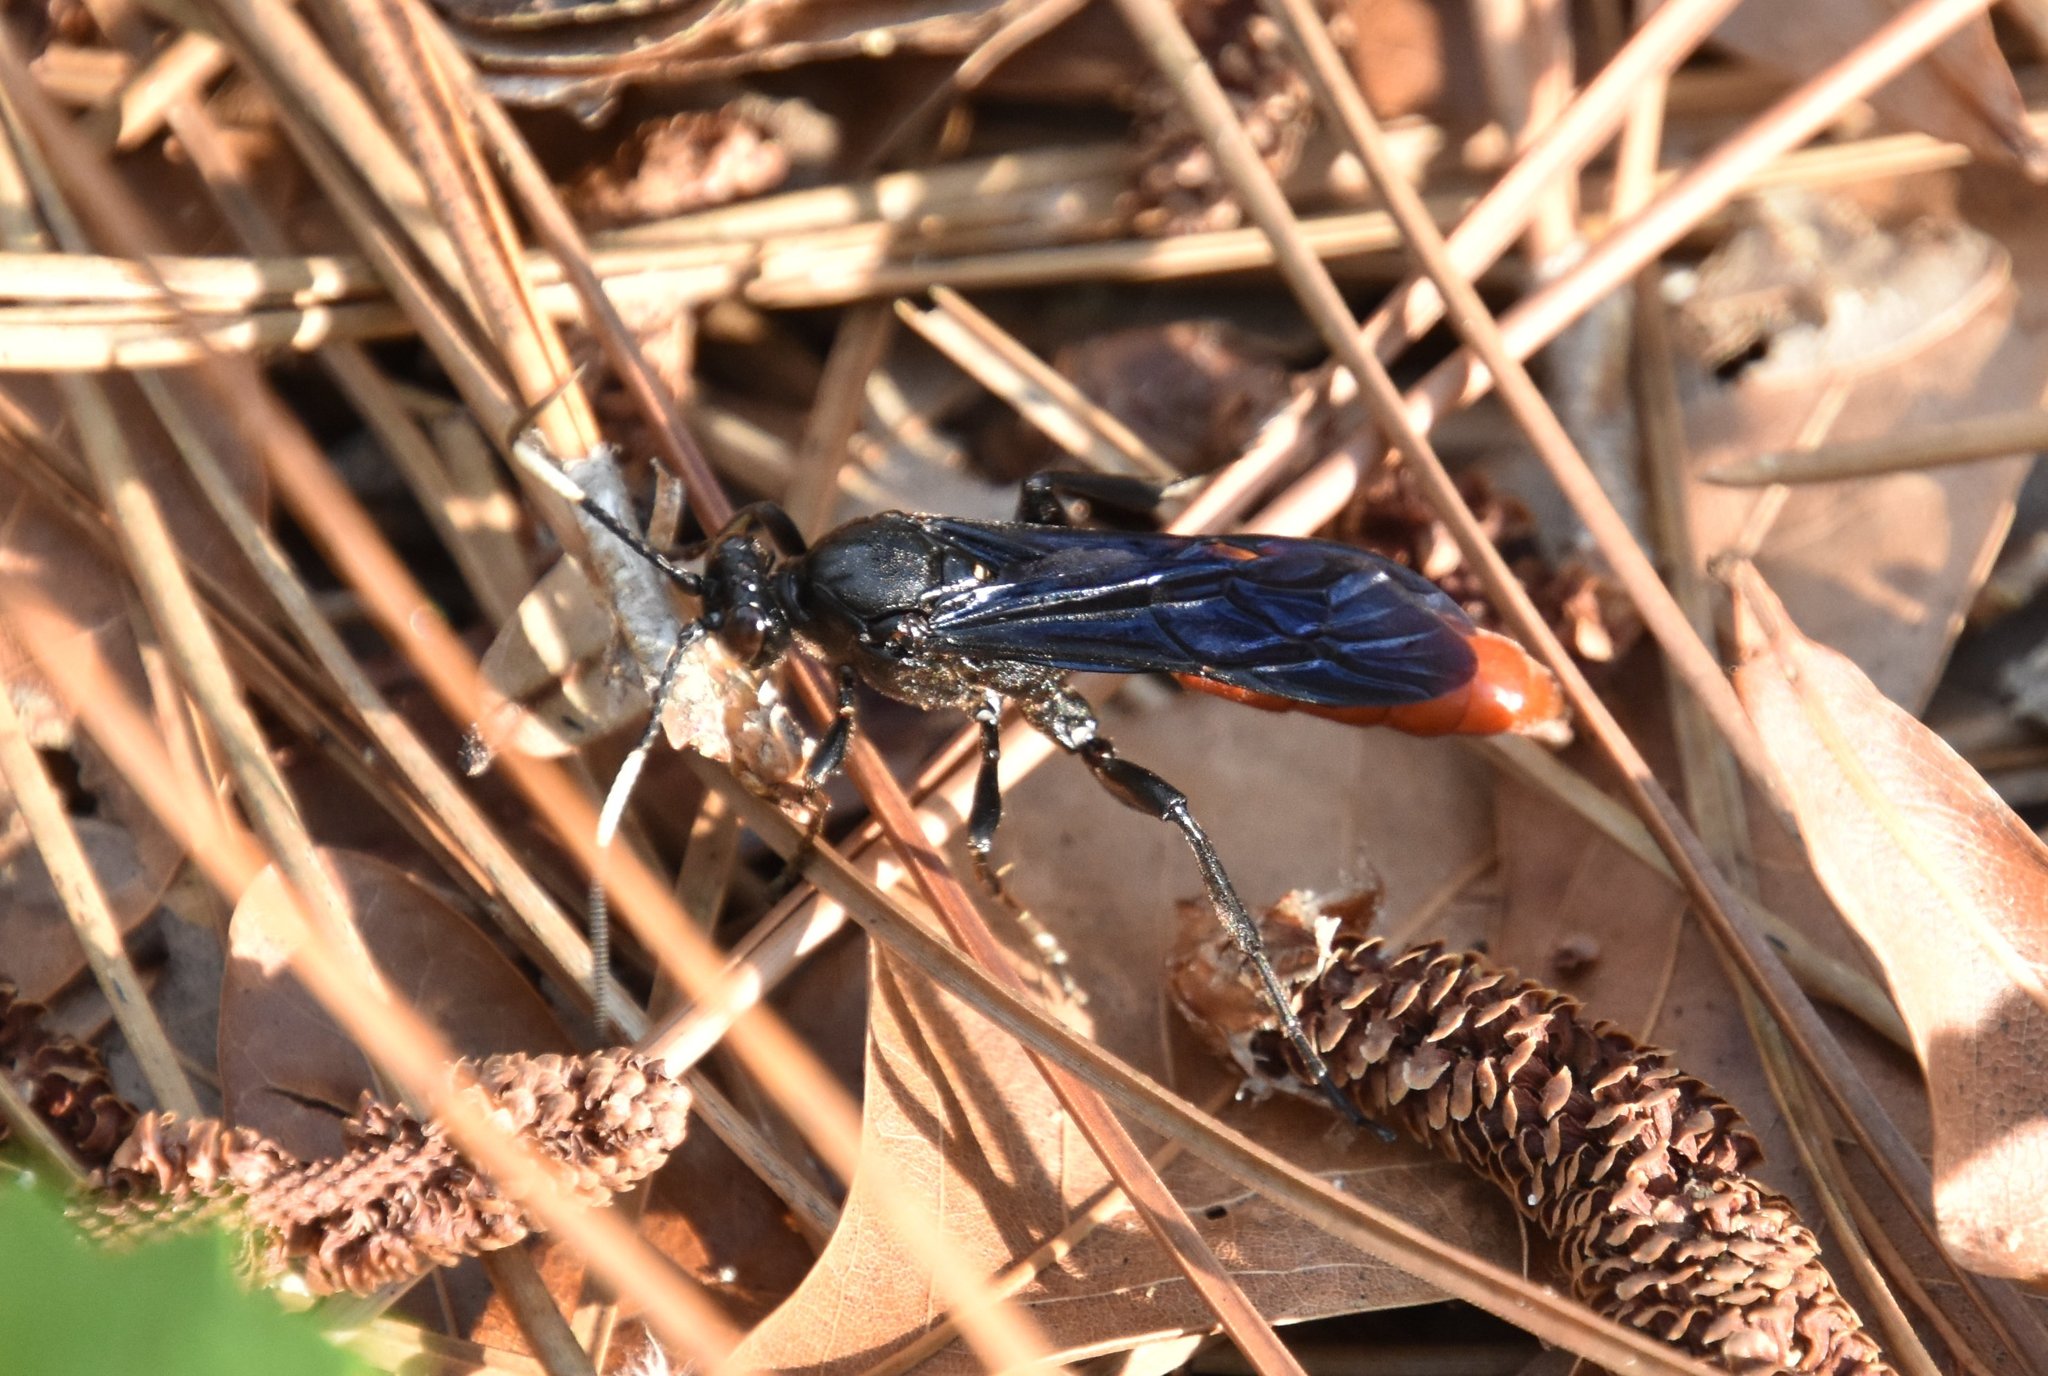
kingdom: Animalia
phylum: Arthropoda
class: Insecta
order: Hymenoptera
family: Ichneumonidae
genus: Protichneumon
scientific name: Protichneumon grandis
